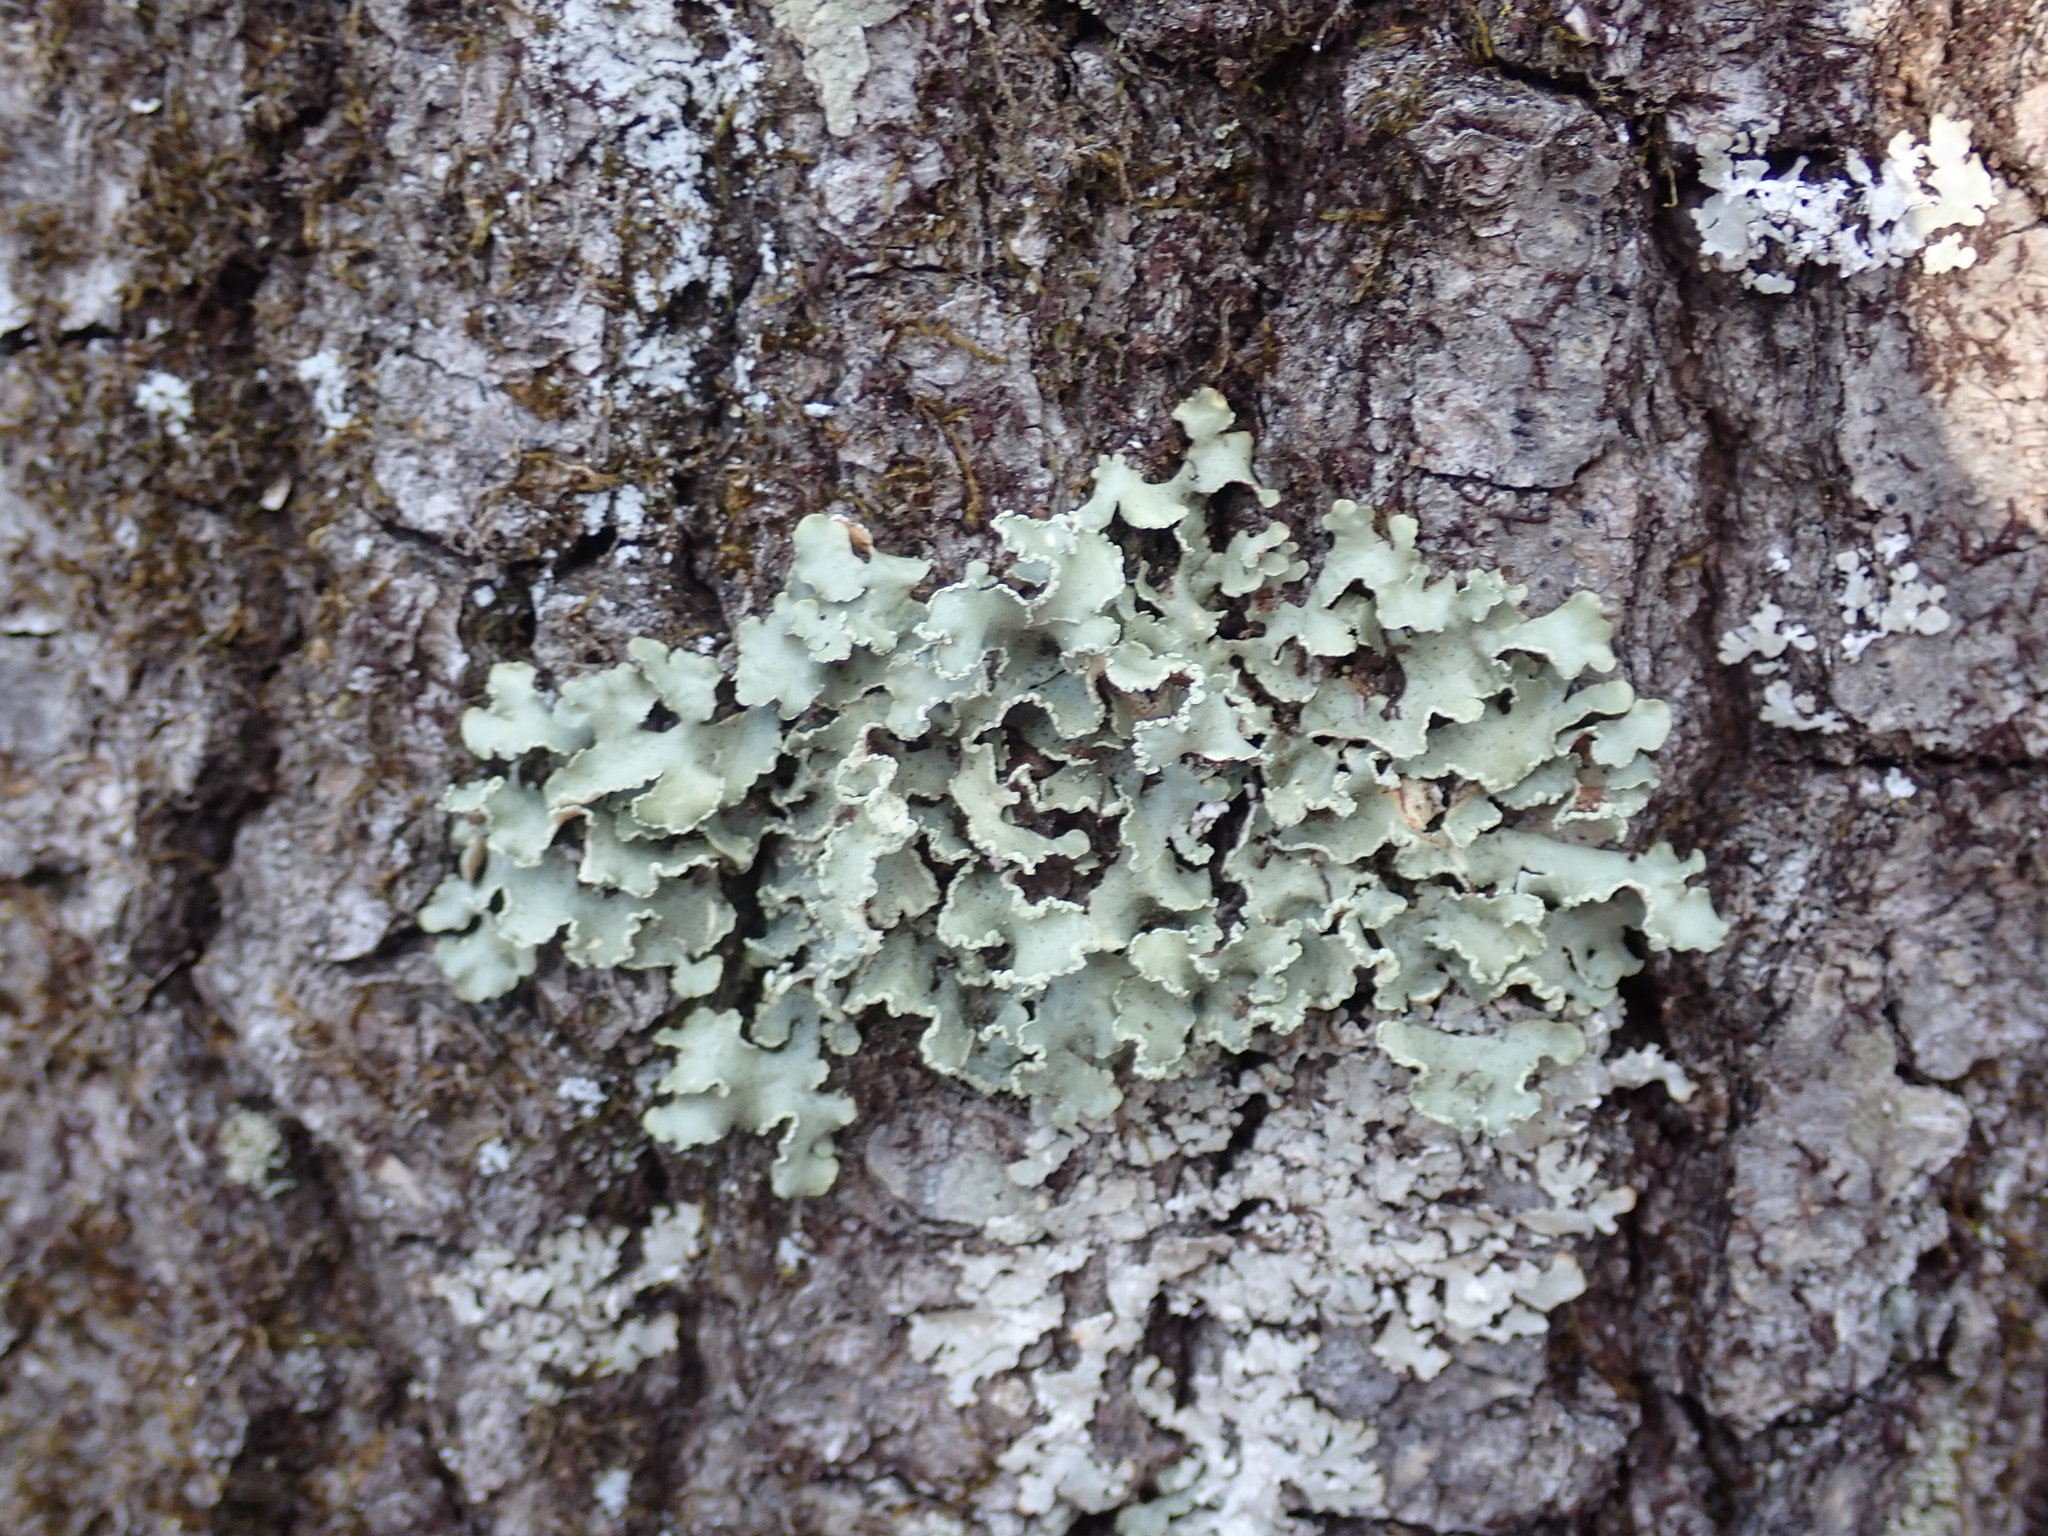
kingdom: Fungi
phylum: Ascomycota
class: Lecanoromycetes
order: Lecanorales
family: Parmeliaceae
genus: Usnocetraria
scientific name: Usnocetraria oakesiana
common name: Yellow ribbon lichen
